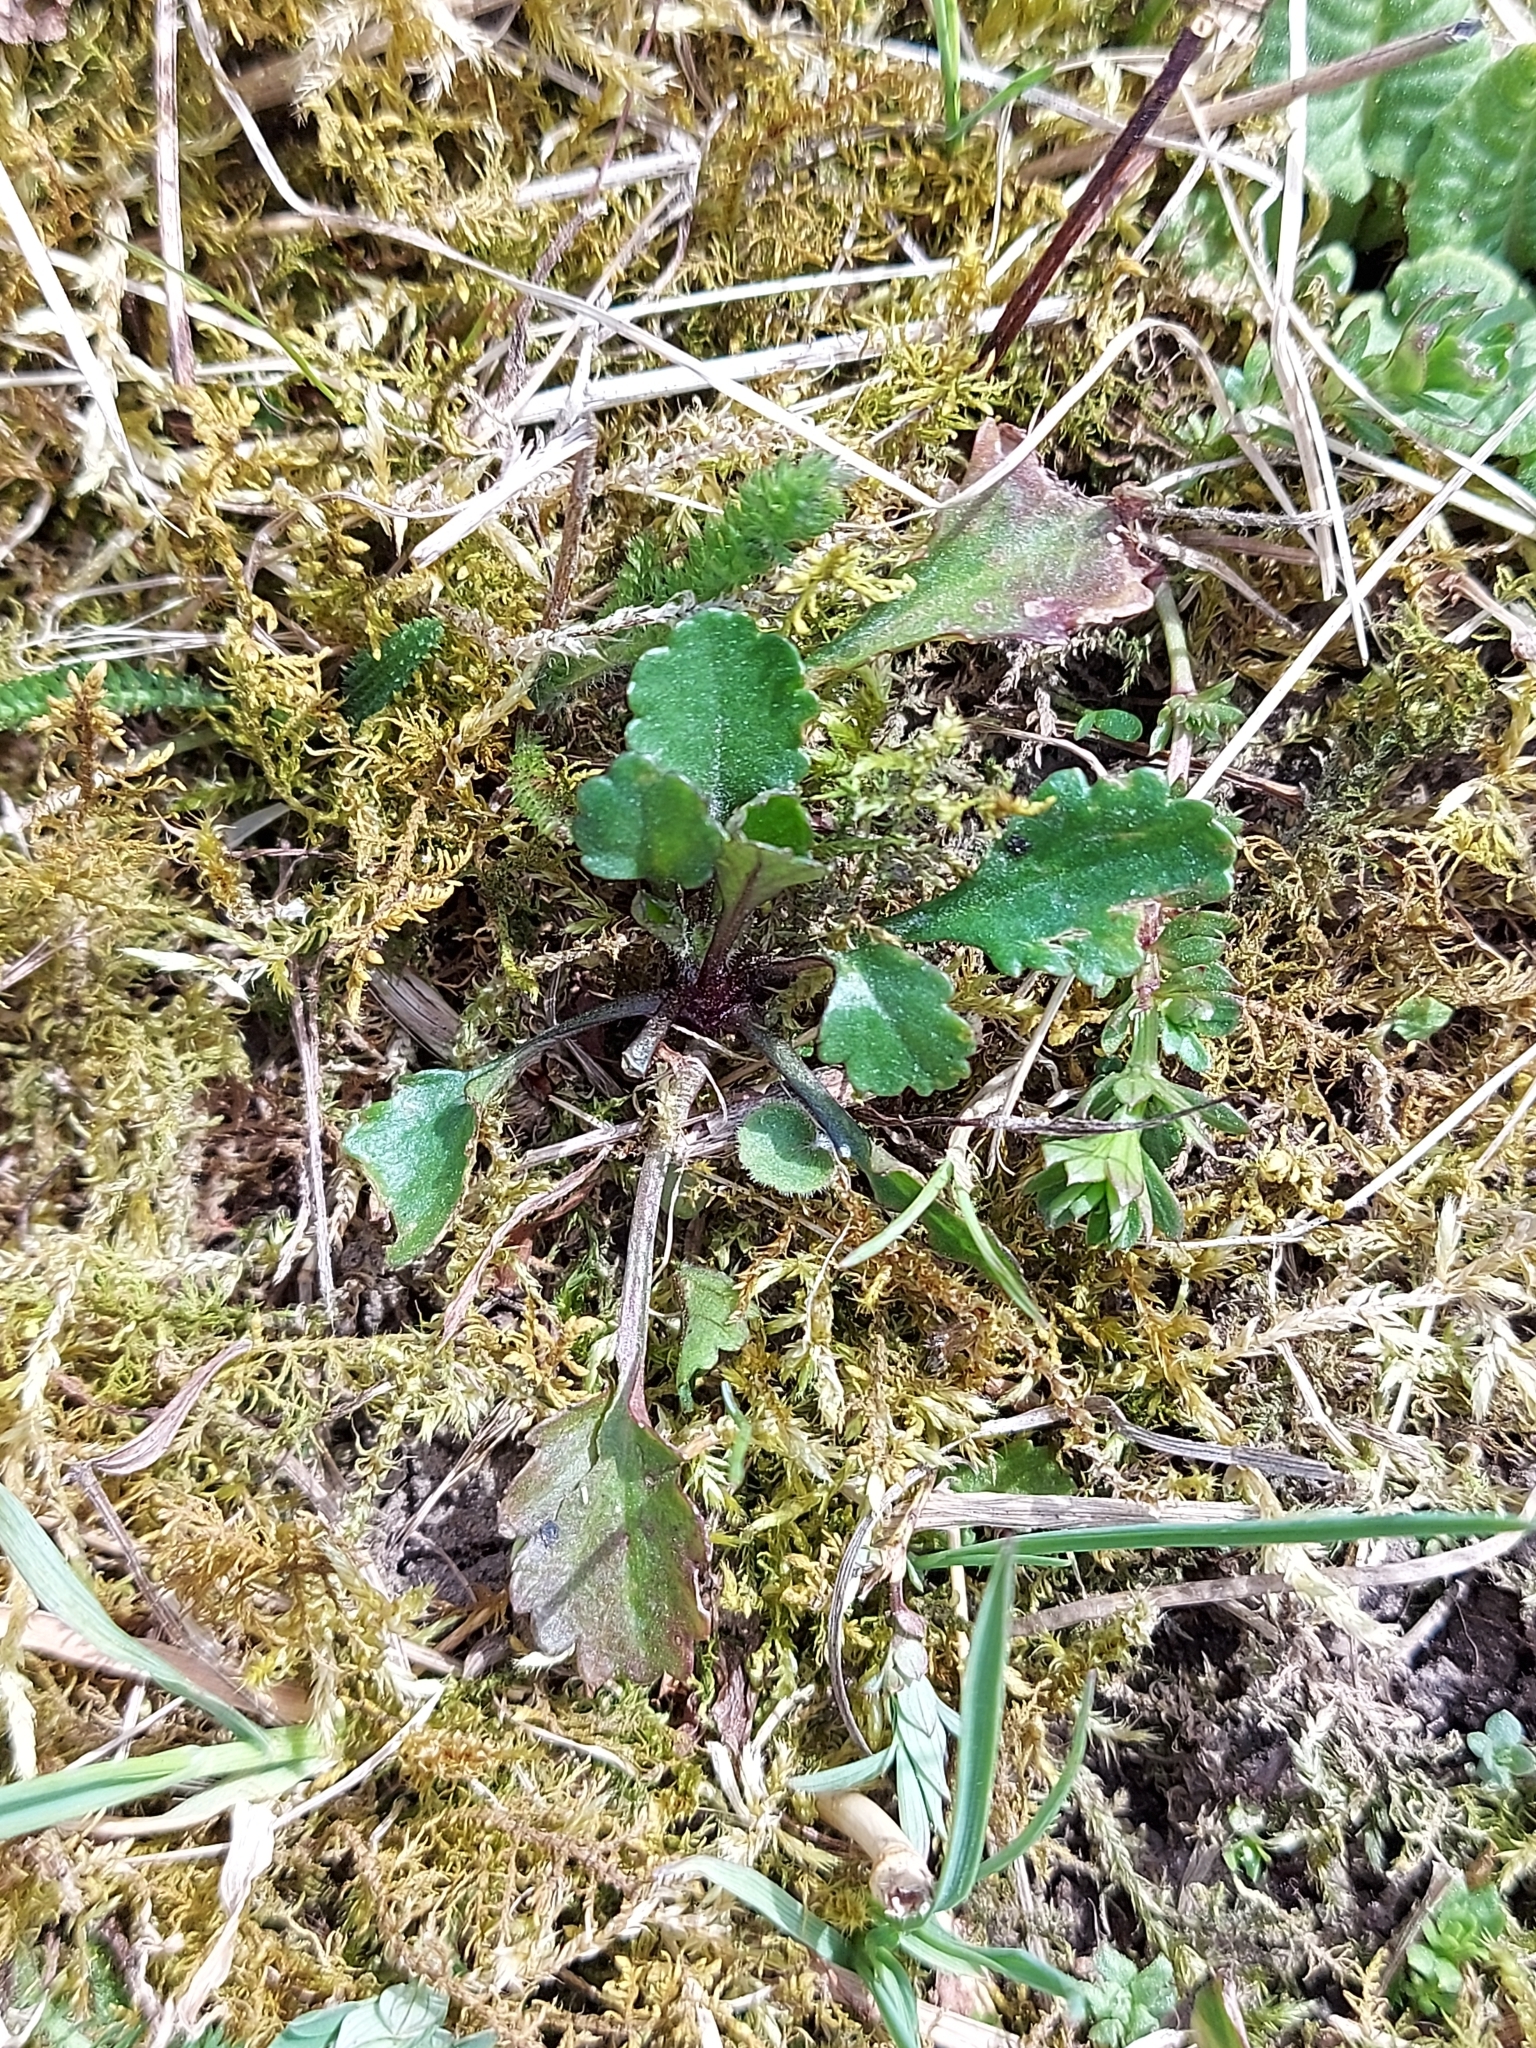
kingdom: Plantae
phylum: Tracheophyta
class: Magnoliopsida
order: Asterales
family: Asteraceae
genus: Leucanthemum
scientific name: Leucanthemum vulgare
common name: Oxeye daisy
